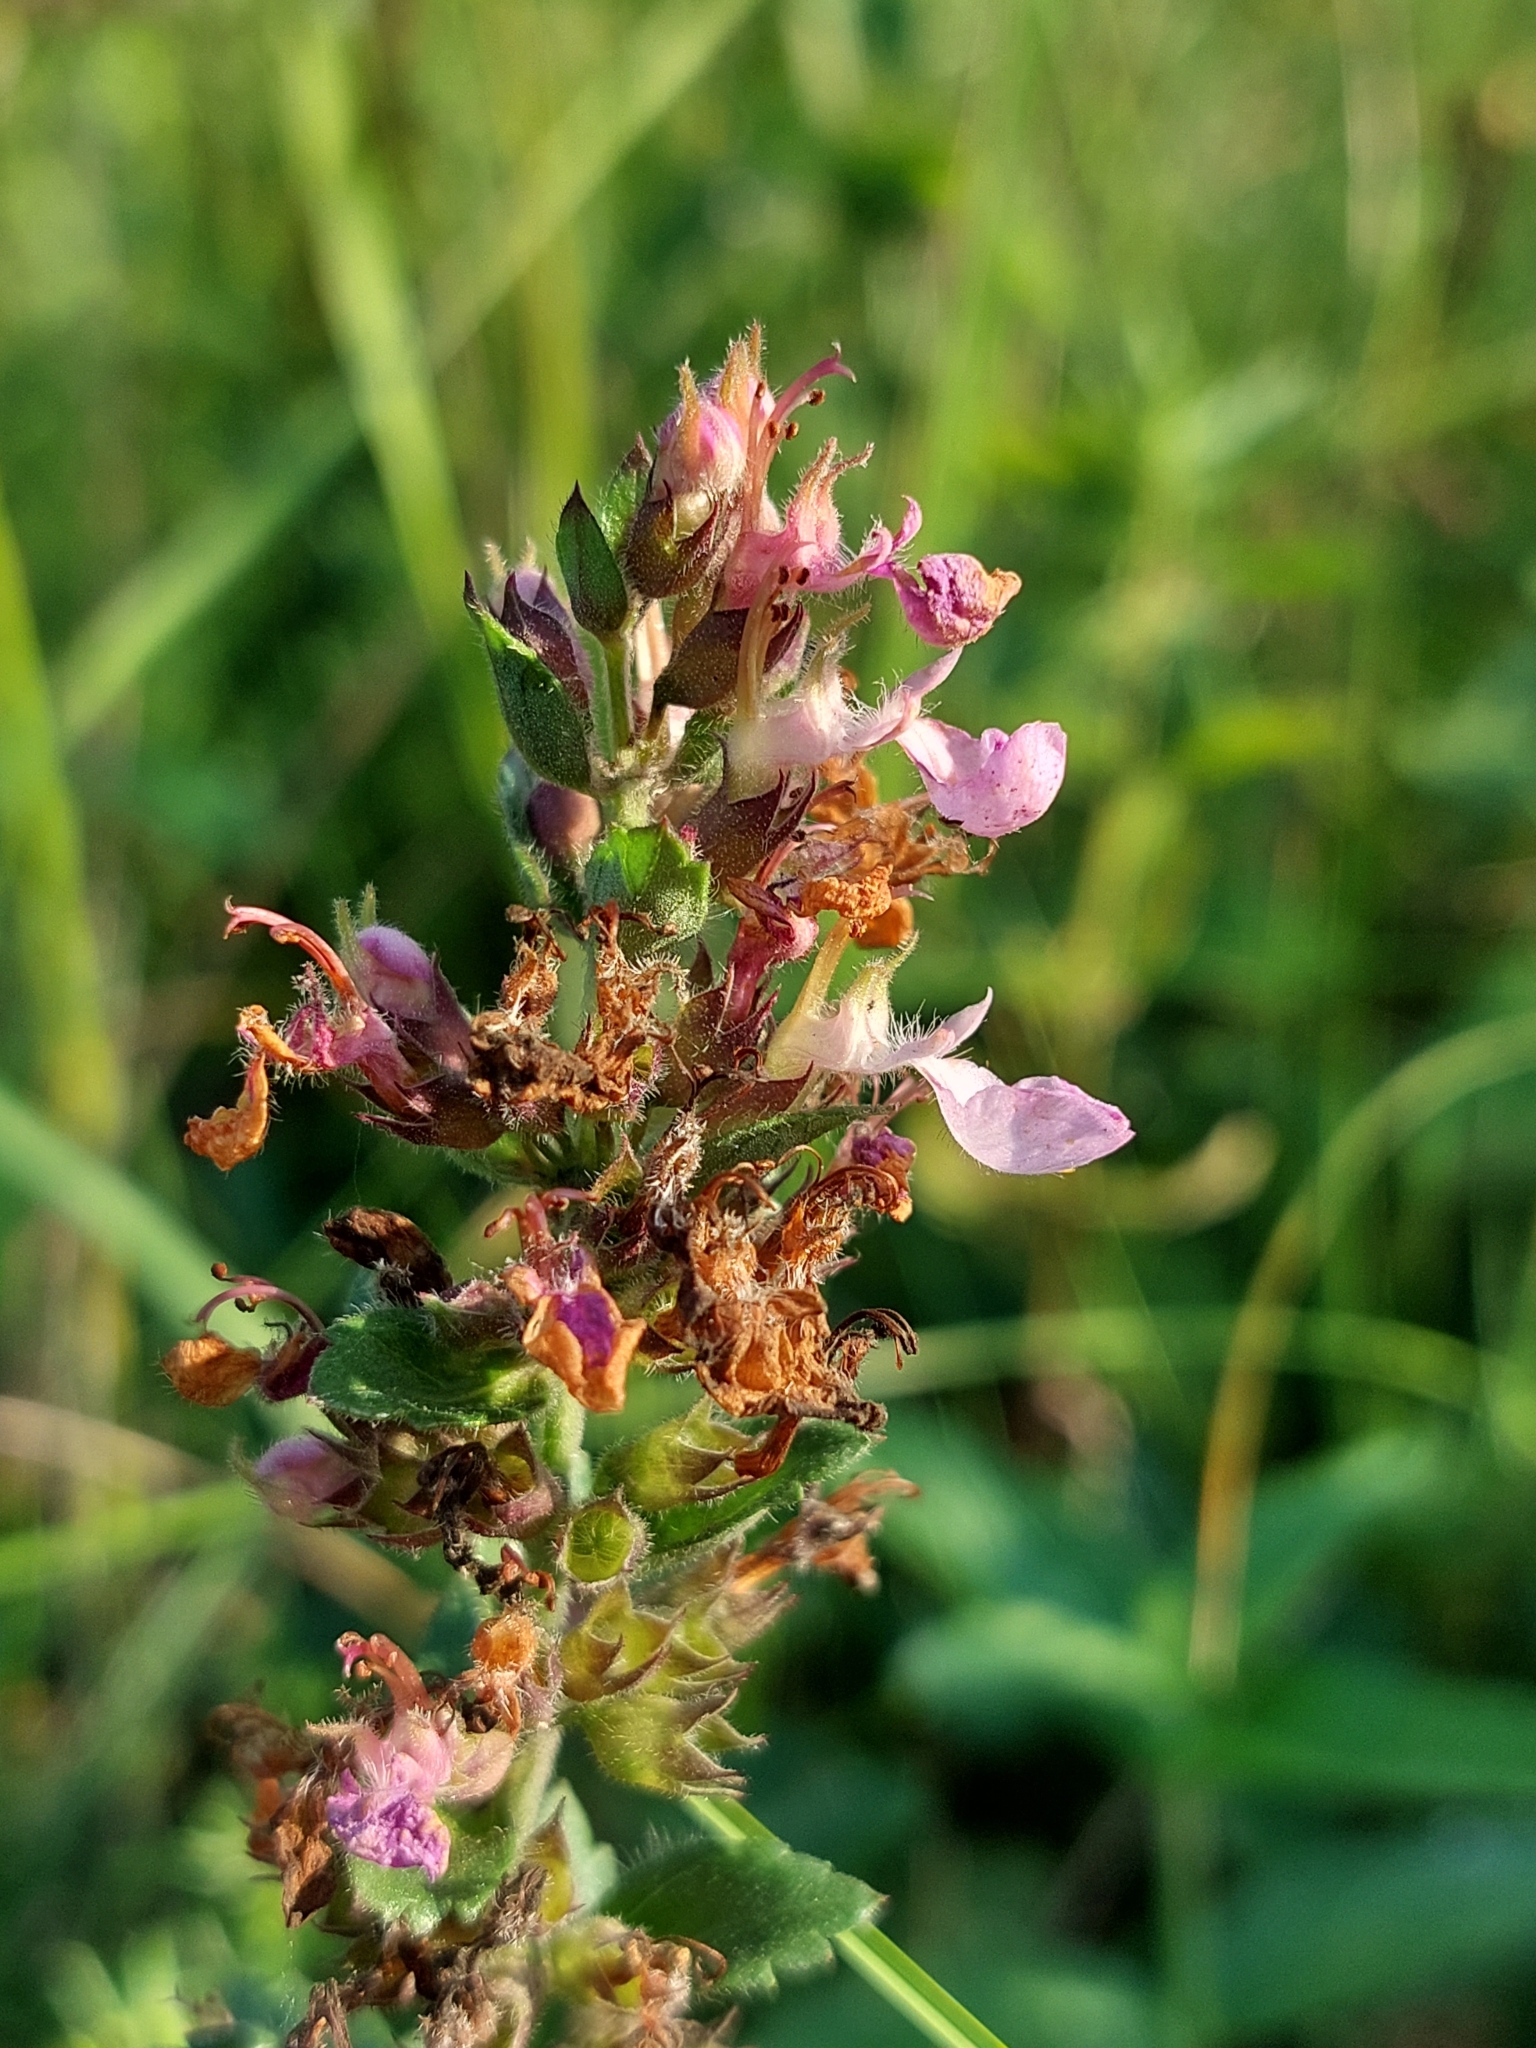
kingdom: Plantae
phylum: Tracheophyta
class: Magnoliopsida
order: Lamiales
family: Lamiaceae
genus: Teucrium
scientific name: Teucrium chamaedrys
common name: Wall germander
